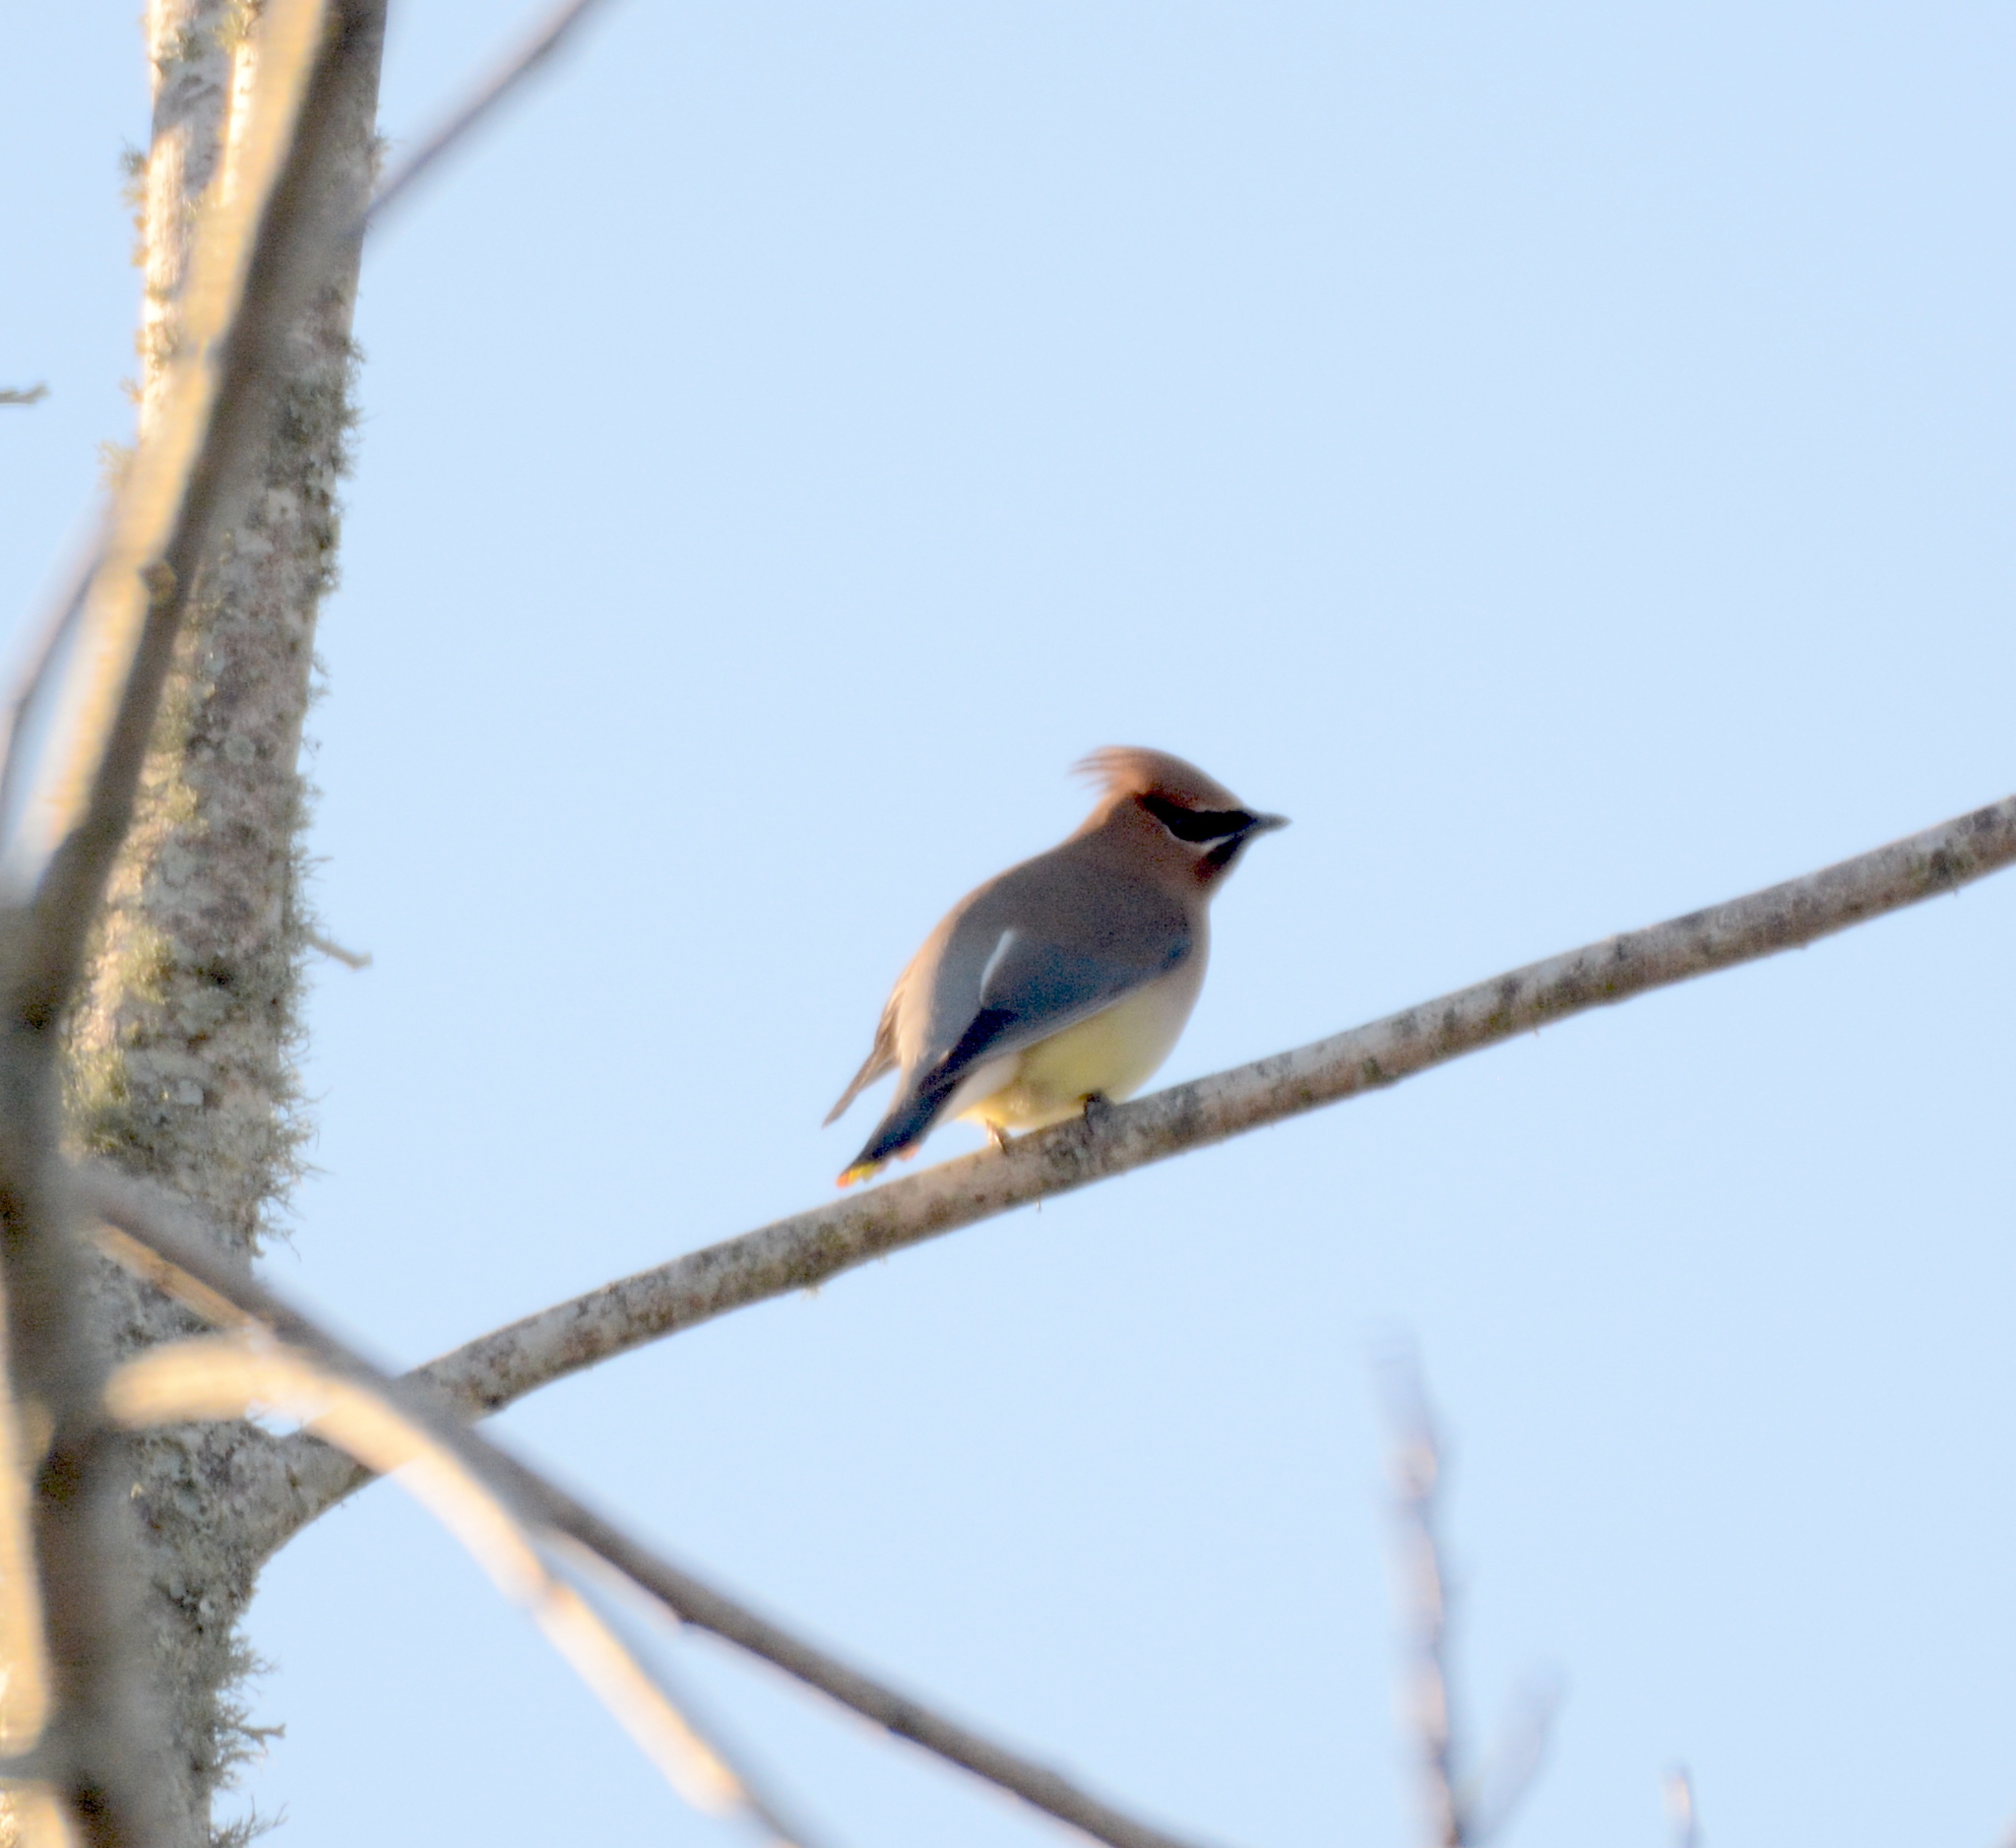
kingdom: Animalia
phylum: Chordata
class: Aves
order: Passeriformes
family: Bombycillidae
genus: Bombycilla
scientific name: Bombycilla cedrorum
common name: Cedar waxwing
